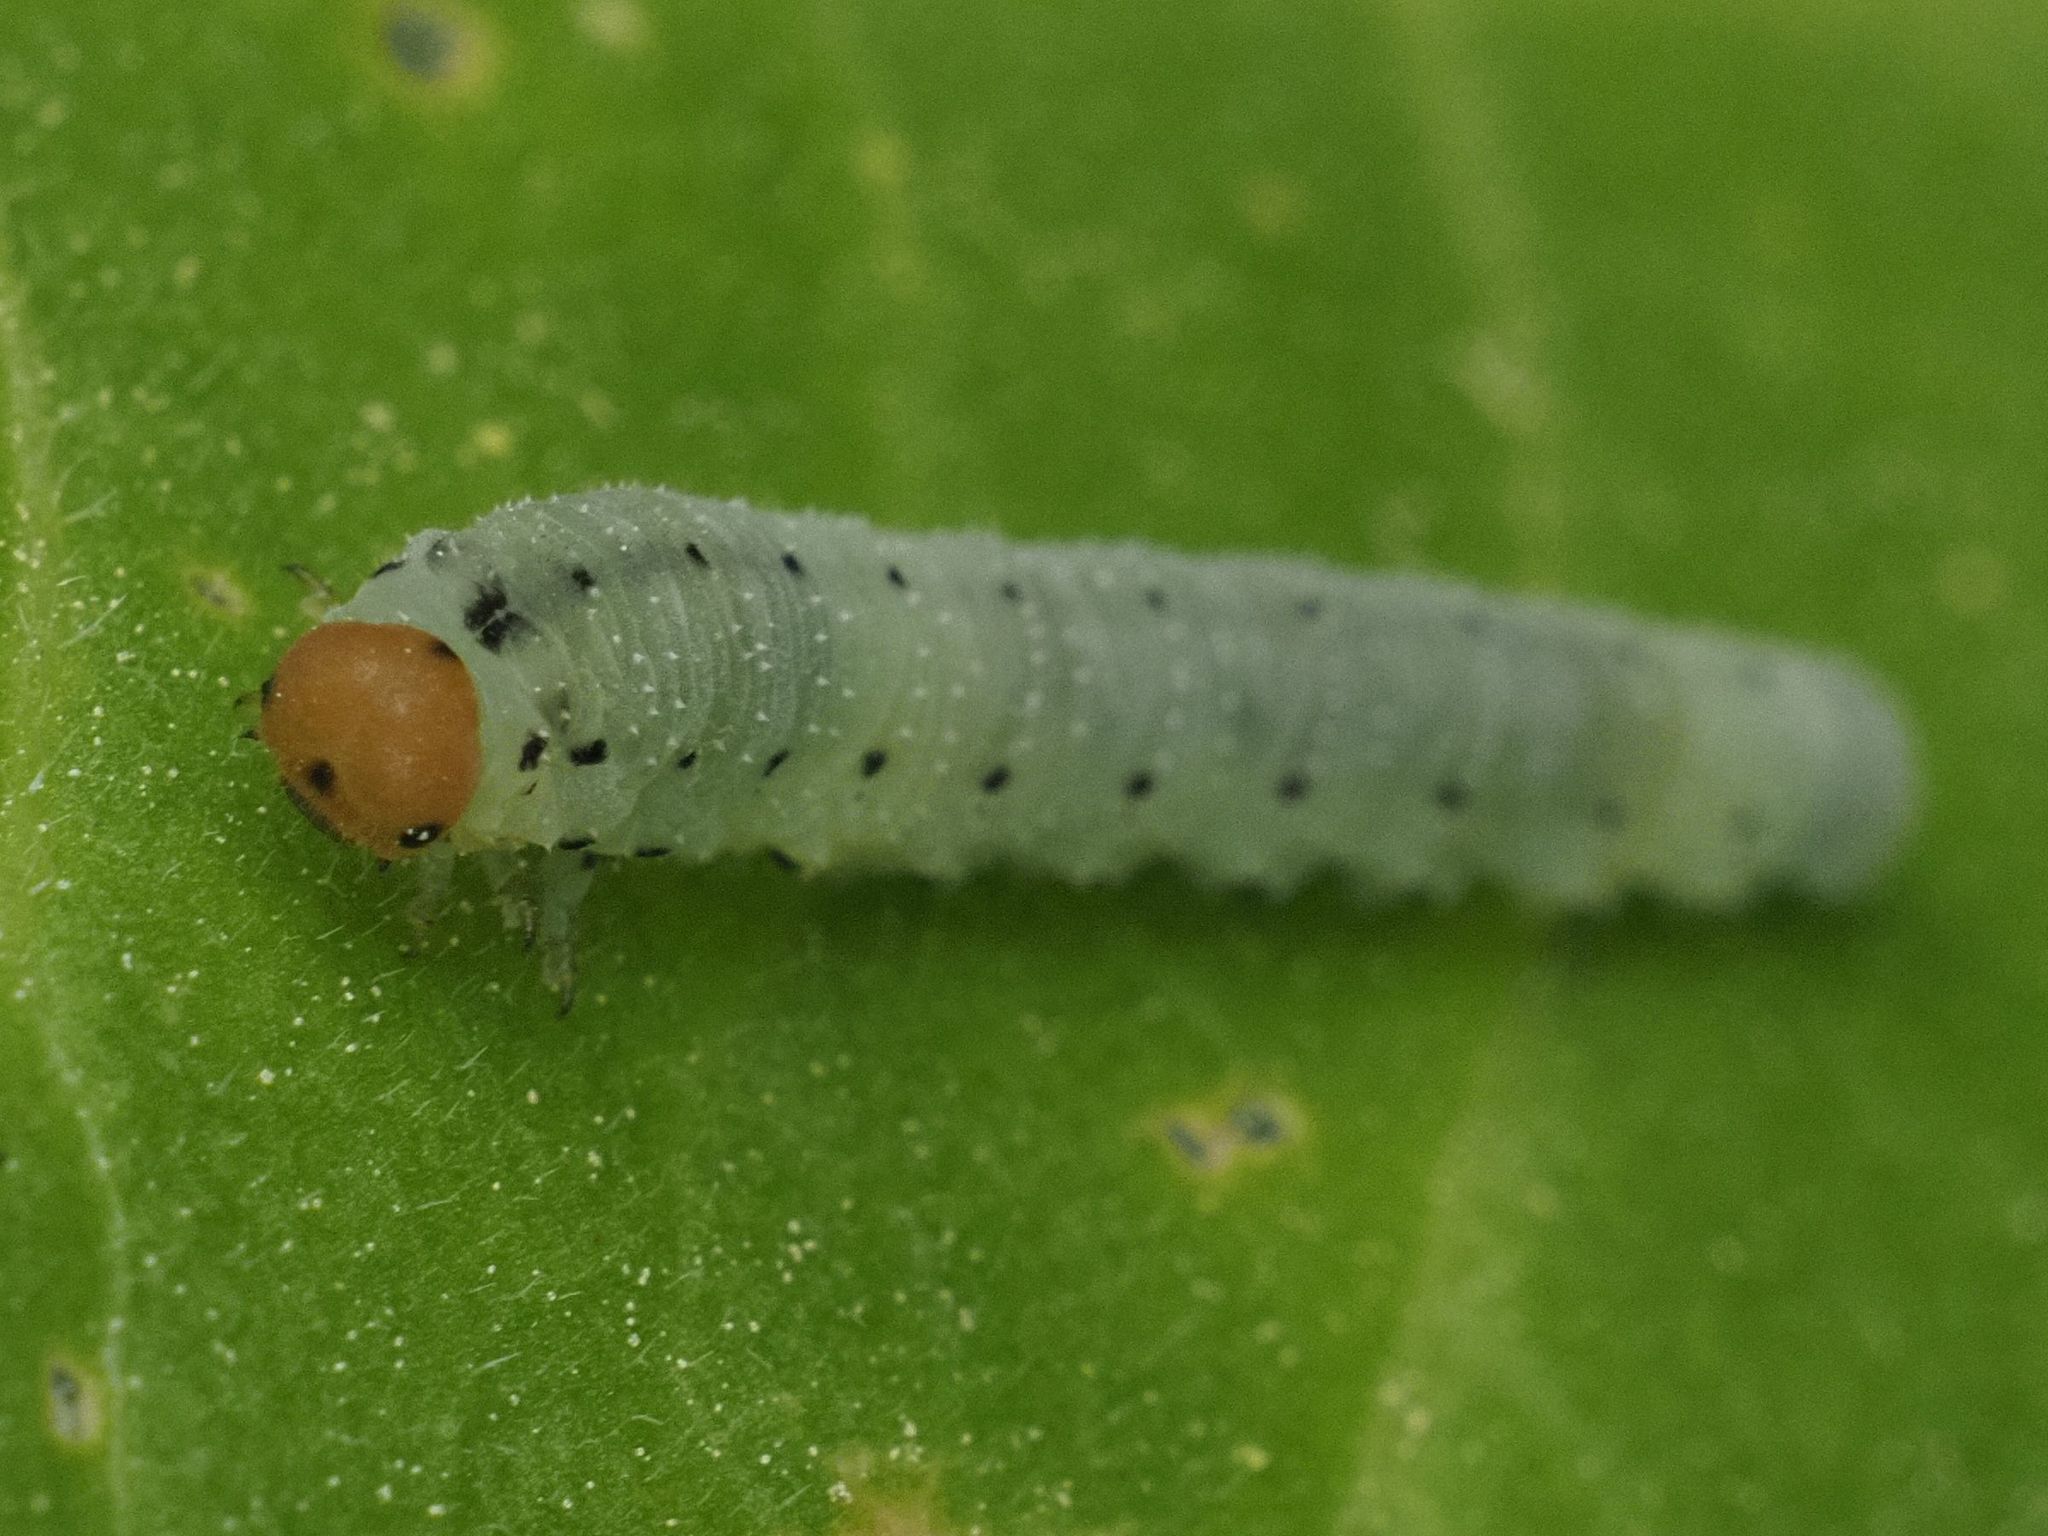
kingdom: Animalia
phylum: Arthropoda
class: Insecta
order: Hymenoptera
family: Tenthredinidae
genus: Sciapteryx
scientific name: Sciapteryx costalis
